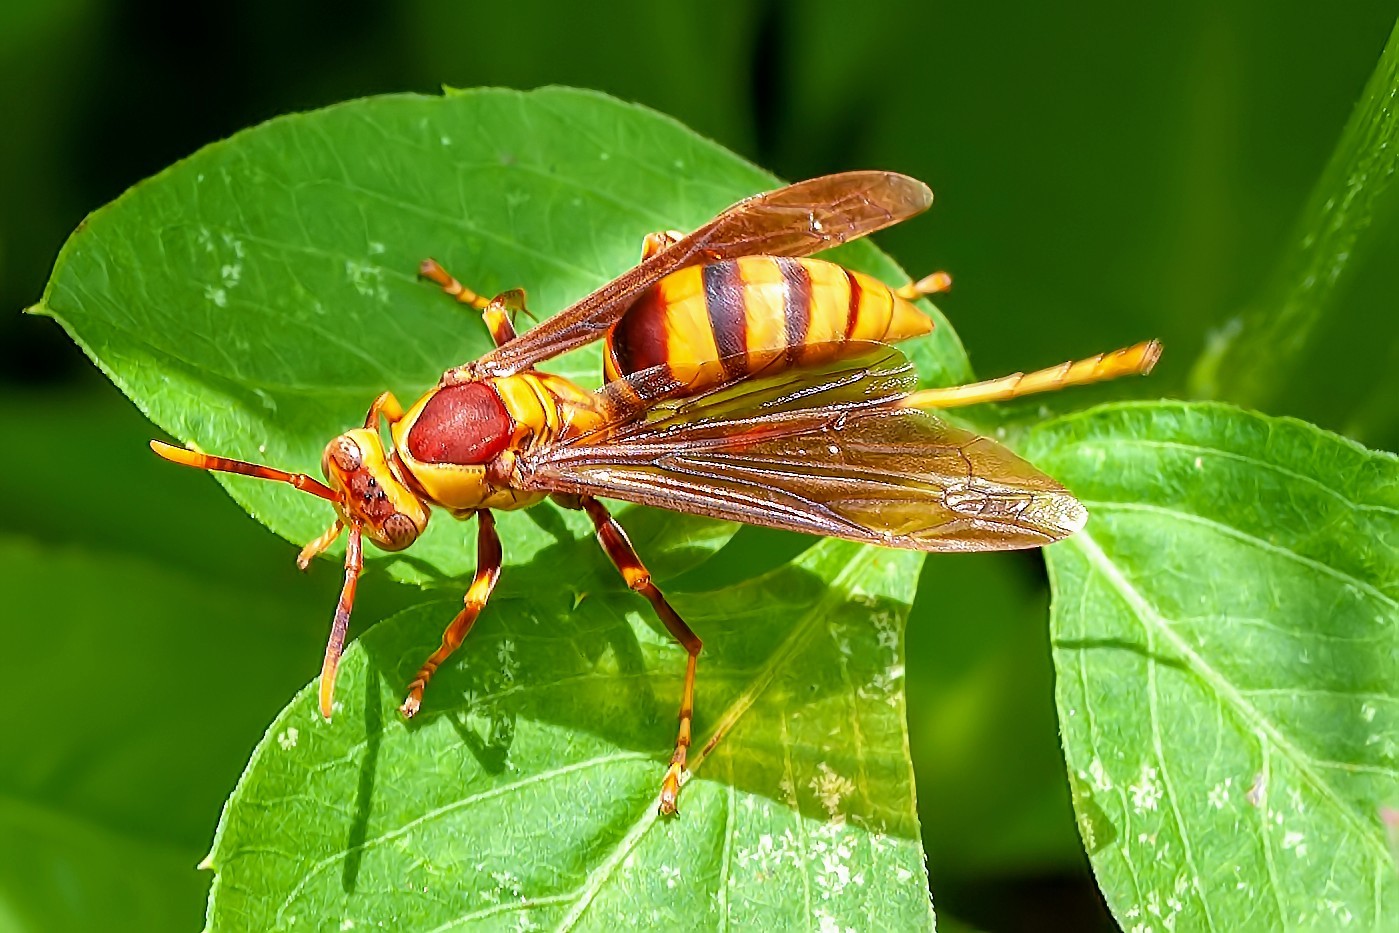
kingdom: Animalia
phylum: Arthropoda
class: Insecta
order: Hymenoptera
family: Eumenidae
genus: Polistes
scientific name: Polistes major
